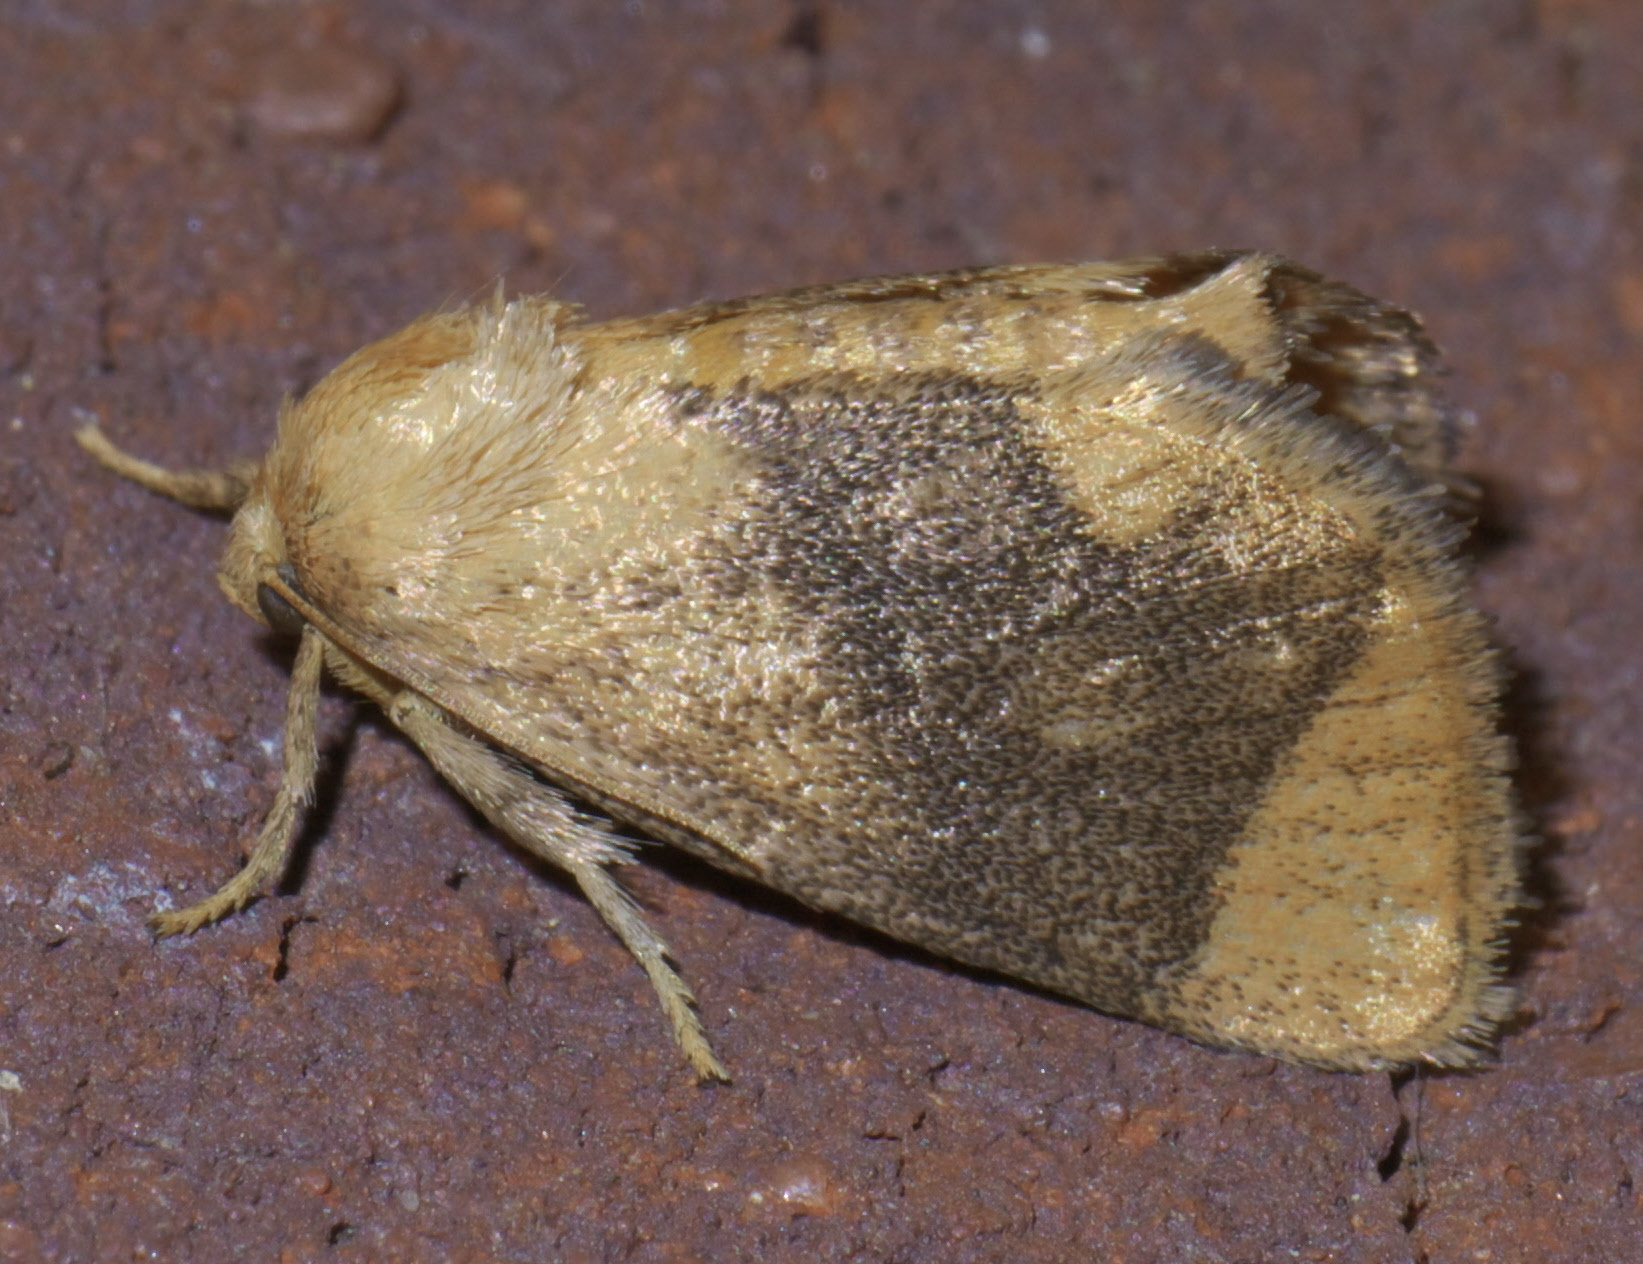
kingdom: Animalia
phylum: Arthropoda
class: Insecta
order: Lepidoptera
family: Limacodidae
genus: Apoda
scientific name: Apoda y-inversa
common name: Yellow-collared slug moth
